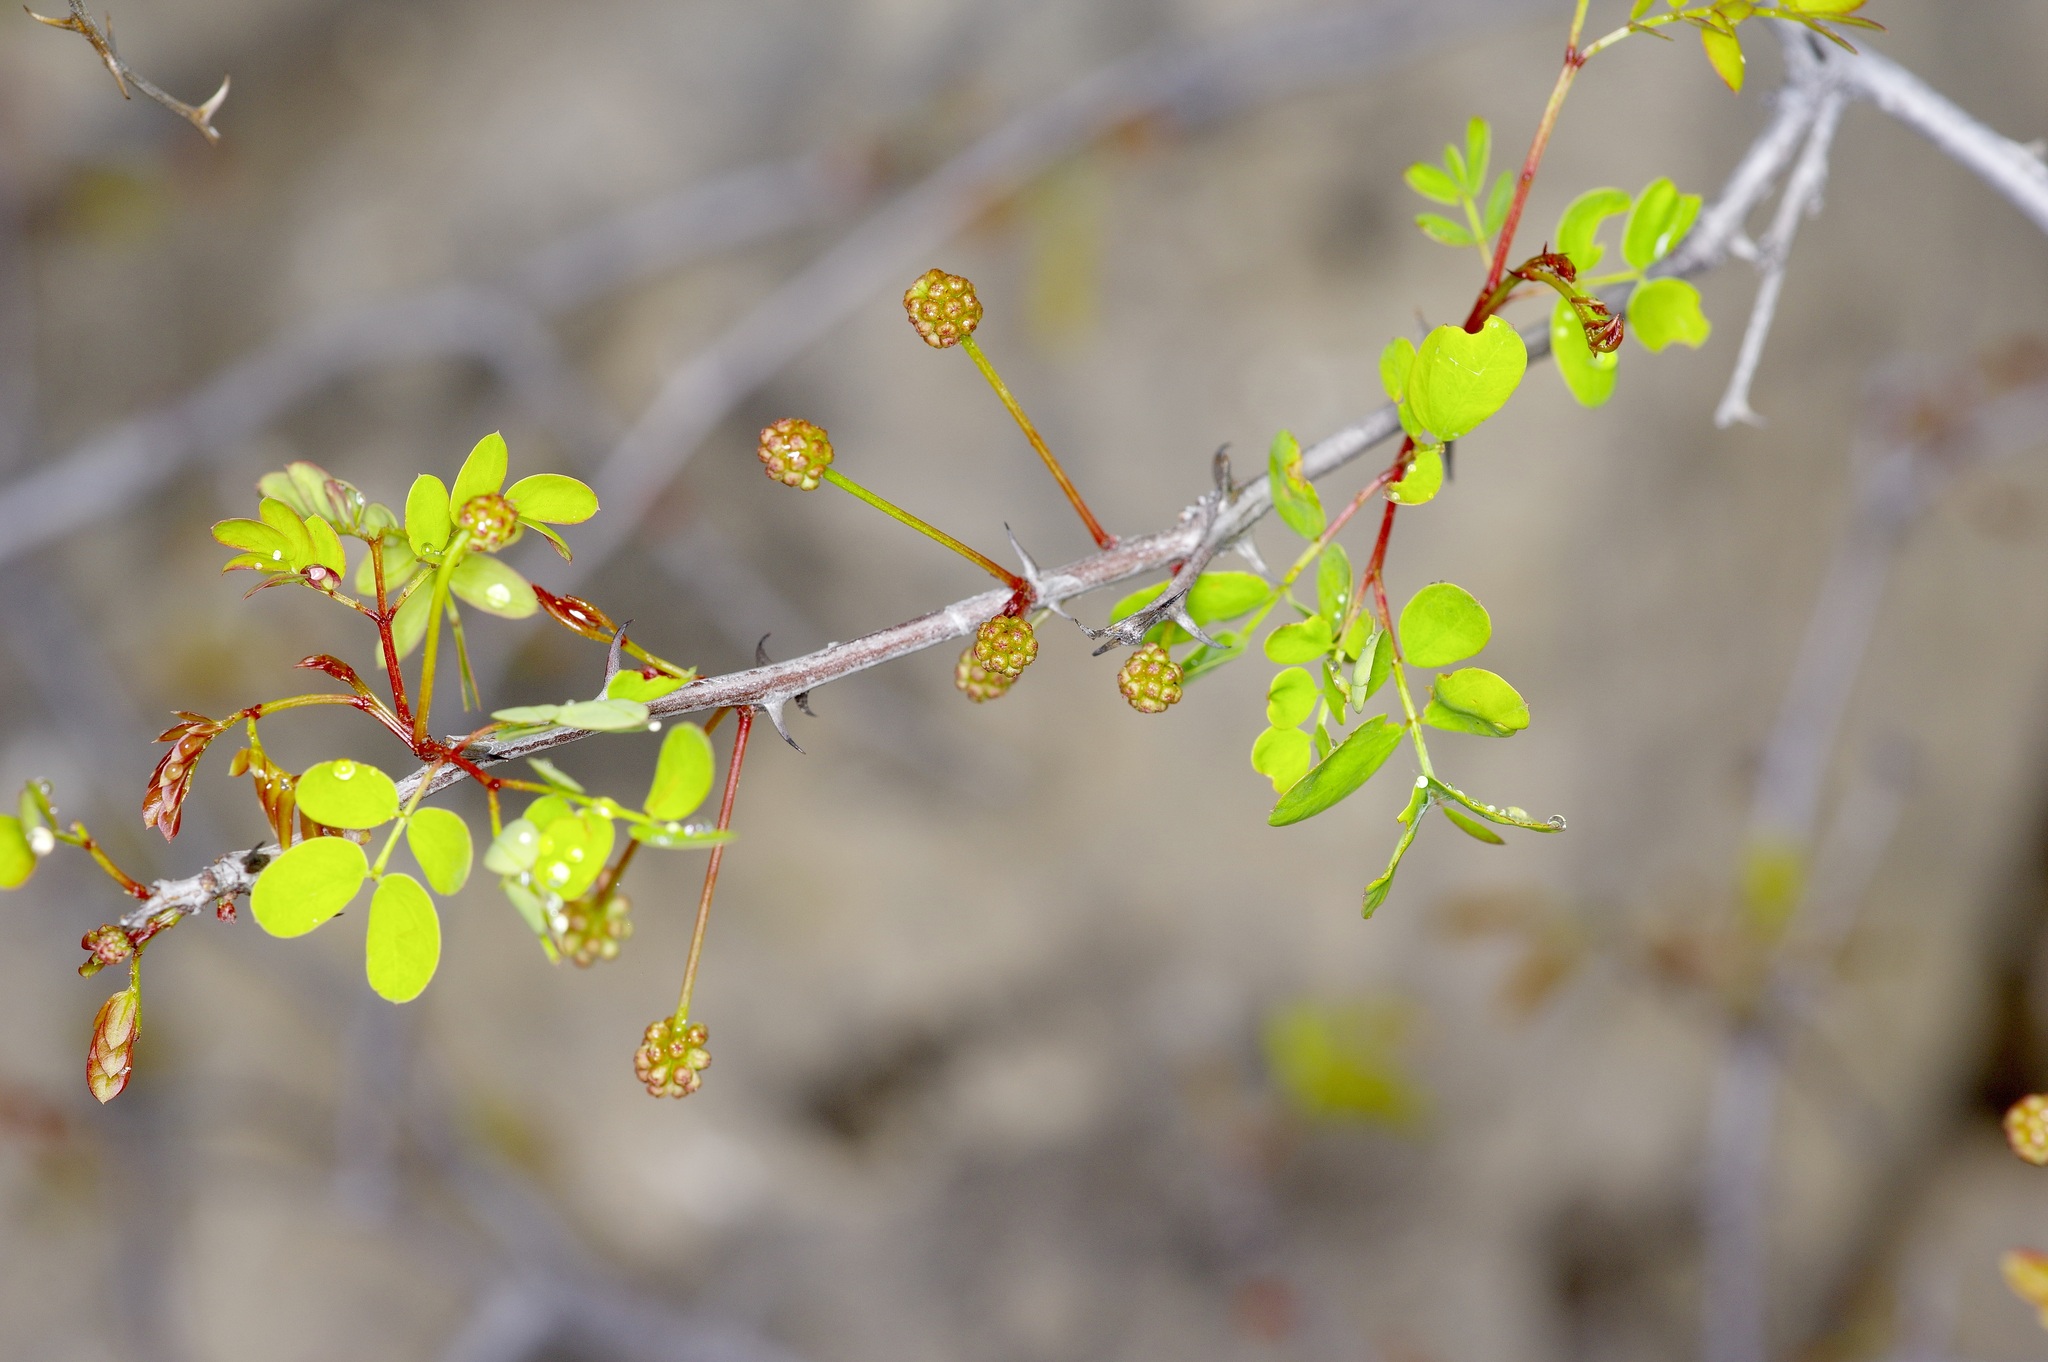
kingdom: Plantae
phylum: Tracheophyta
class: Magnoliopsida
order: Fabales
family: Fabaceae
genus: Senegalia
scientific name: Senegalia roemeriana
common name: Roemer's acacia
